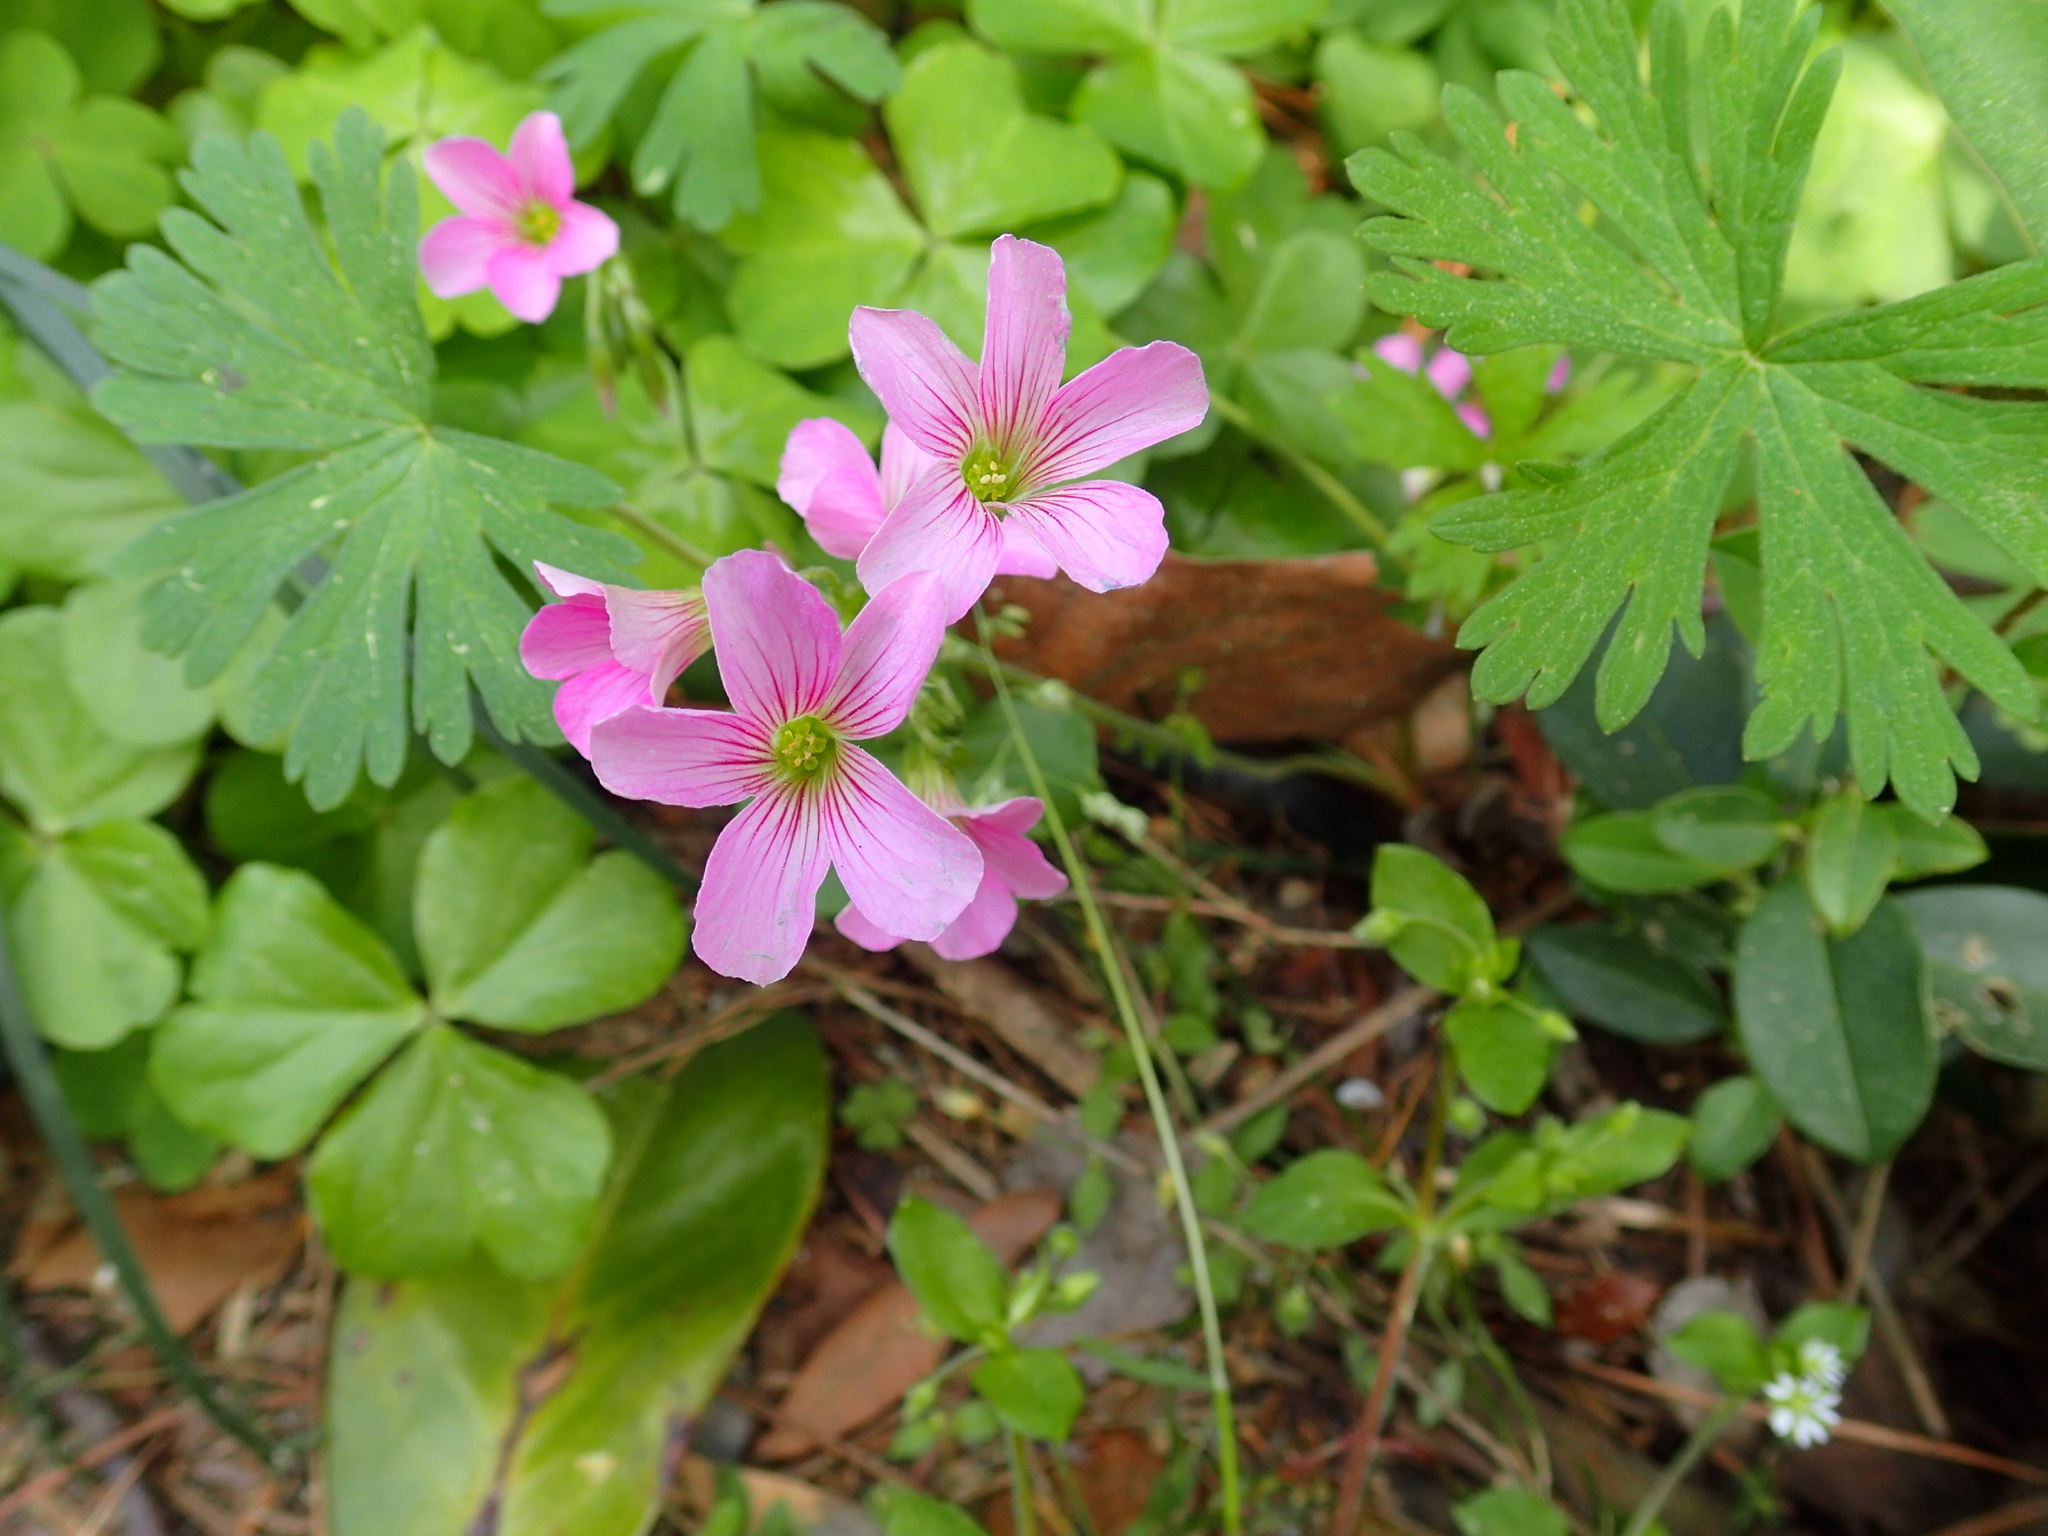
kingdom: Plantae
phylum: Tracheophyta
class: Magnoliopsida
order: Oxalidales
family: Oxalidaceae
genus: Oxalis
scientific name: Oxalis debilis
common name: Large-flowered pink-sorrel
